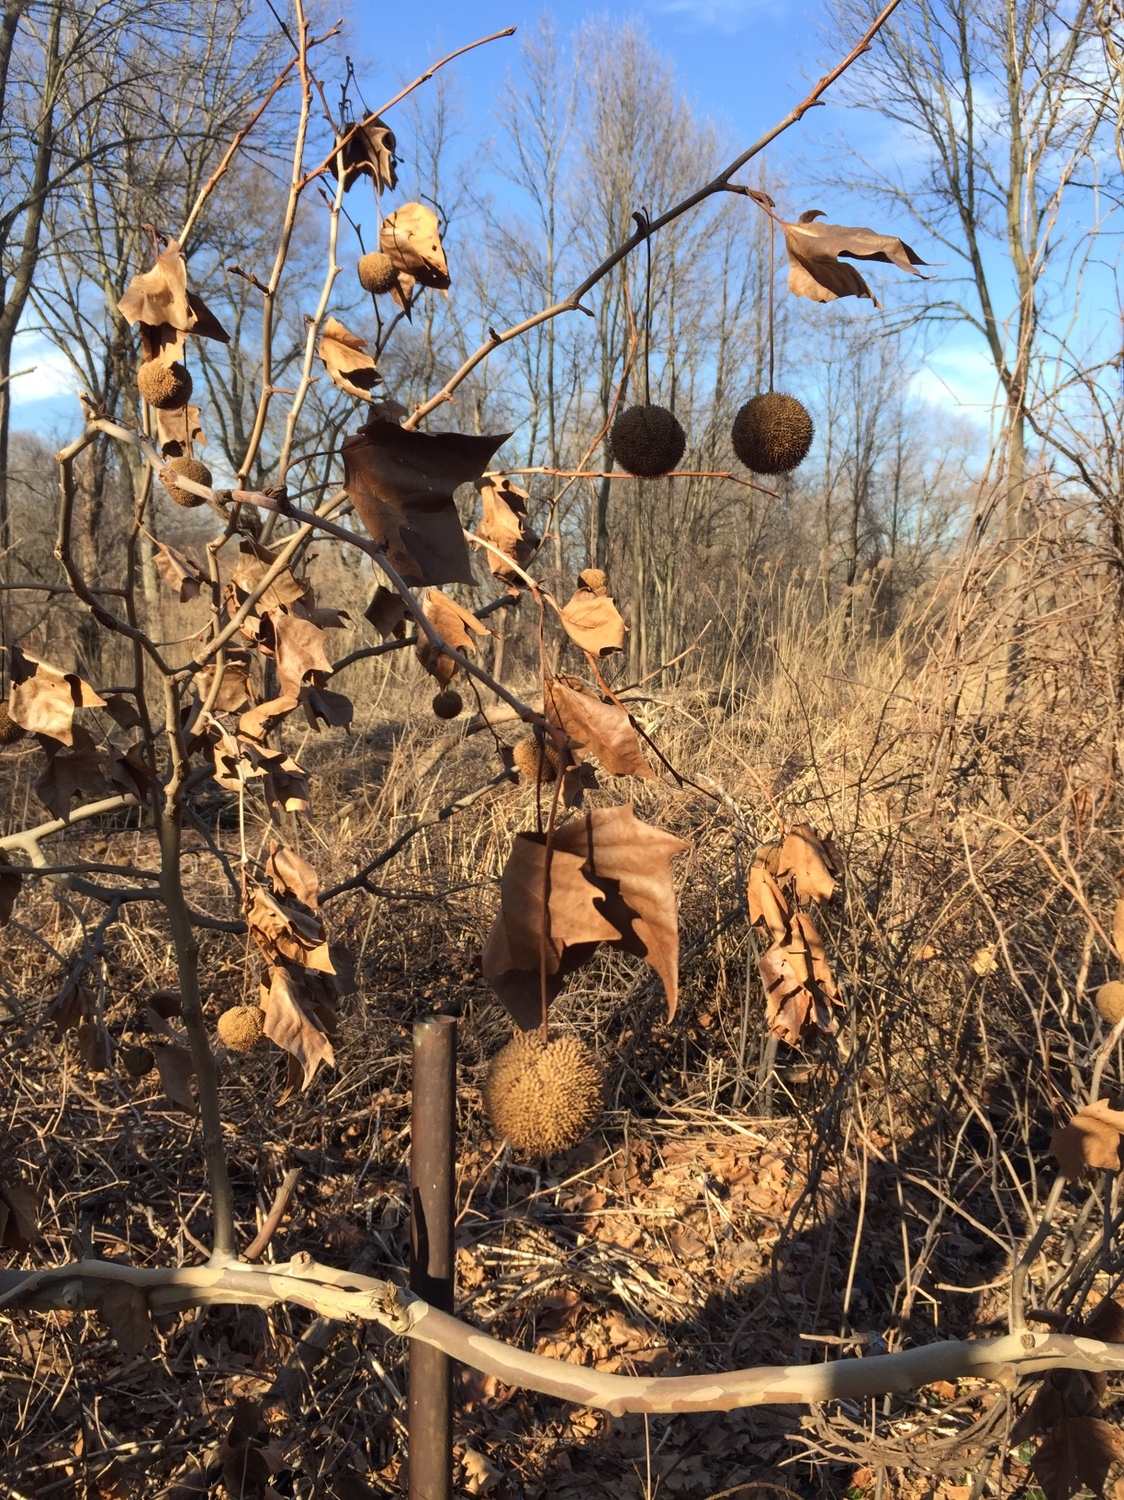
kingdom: Plantae
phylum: Tracheophyta
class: Magnoliopsida
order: Proteales
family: Platanaceae
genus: Platanus
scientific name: Platanus occidentalis
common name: American sycamore
